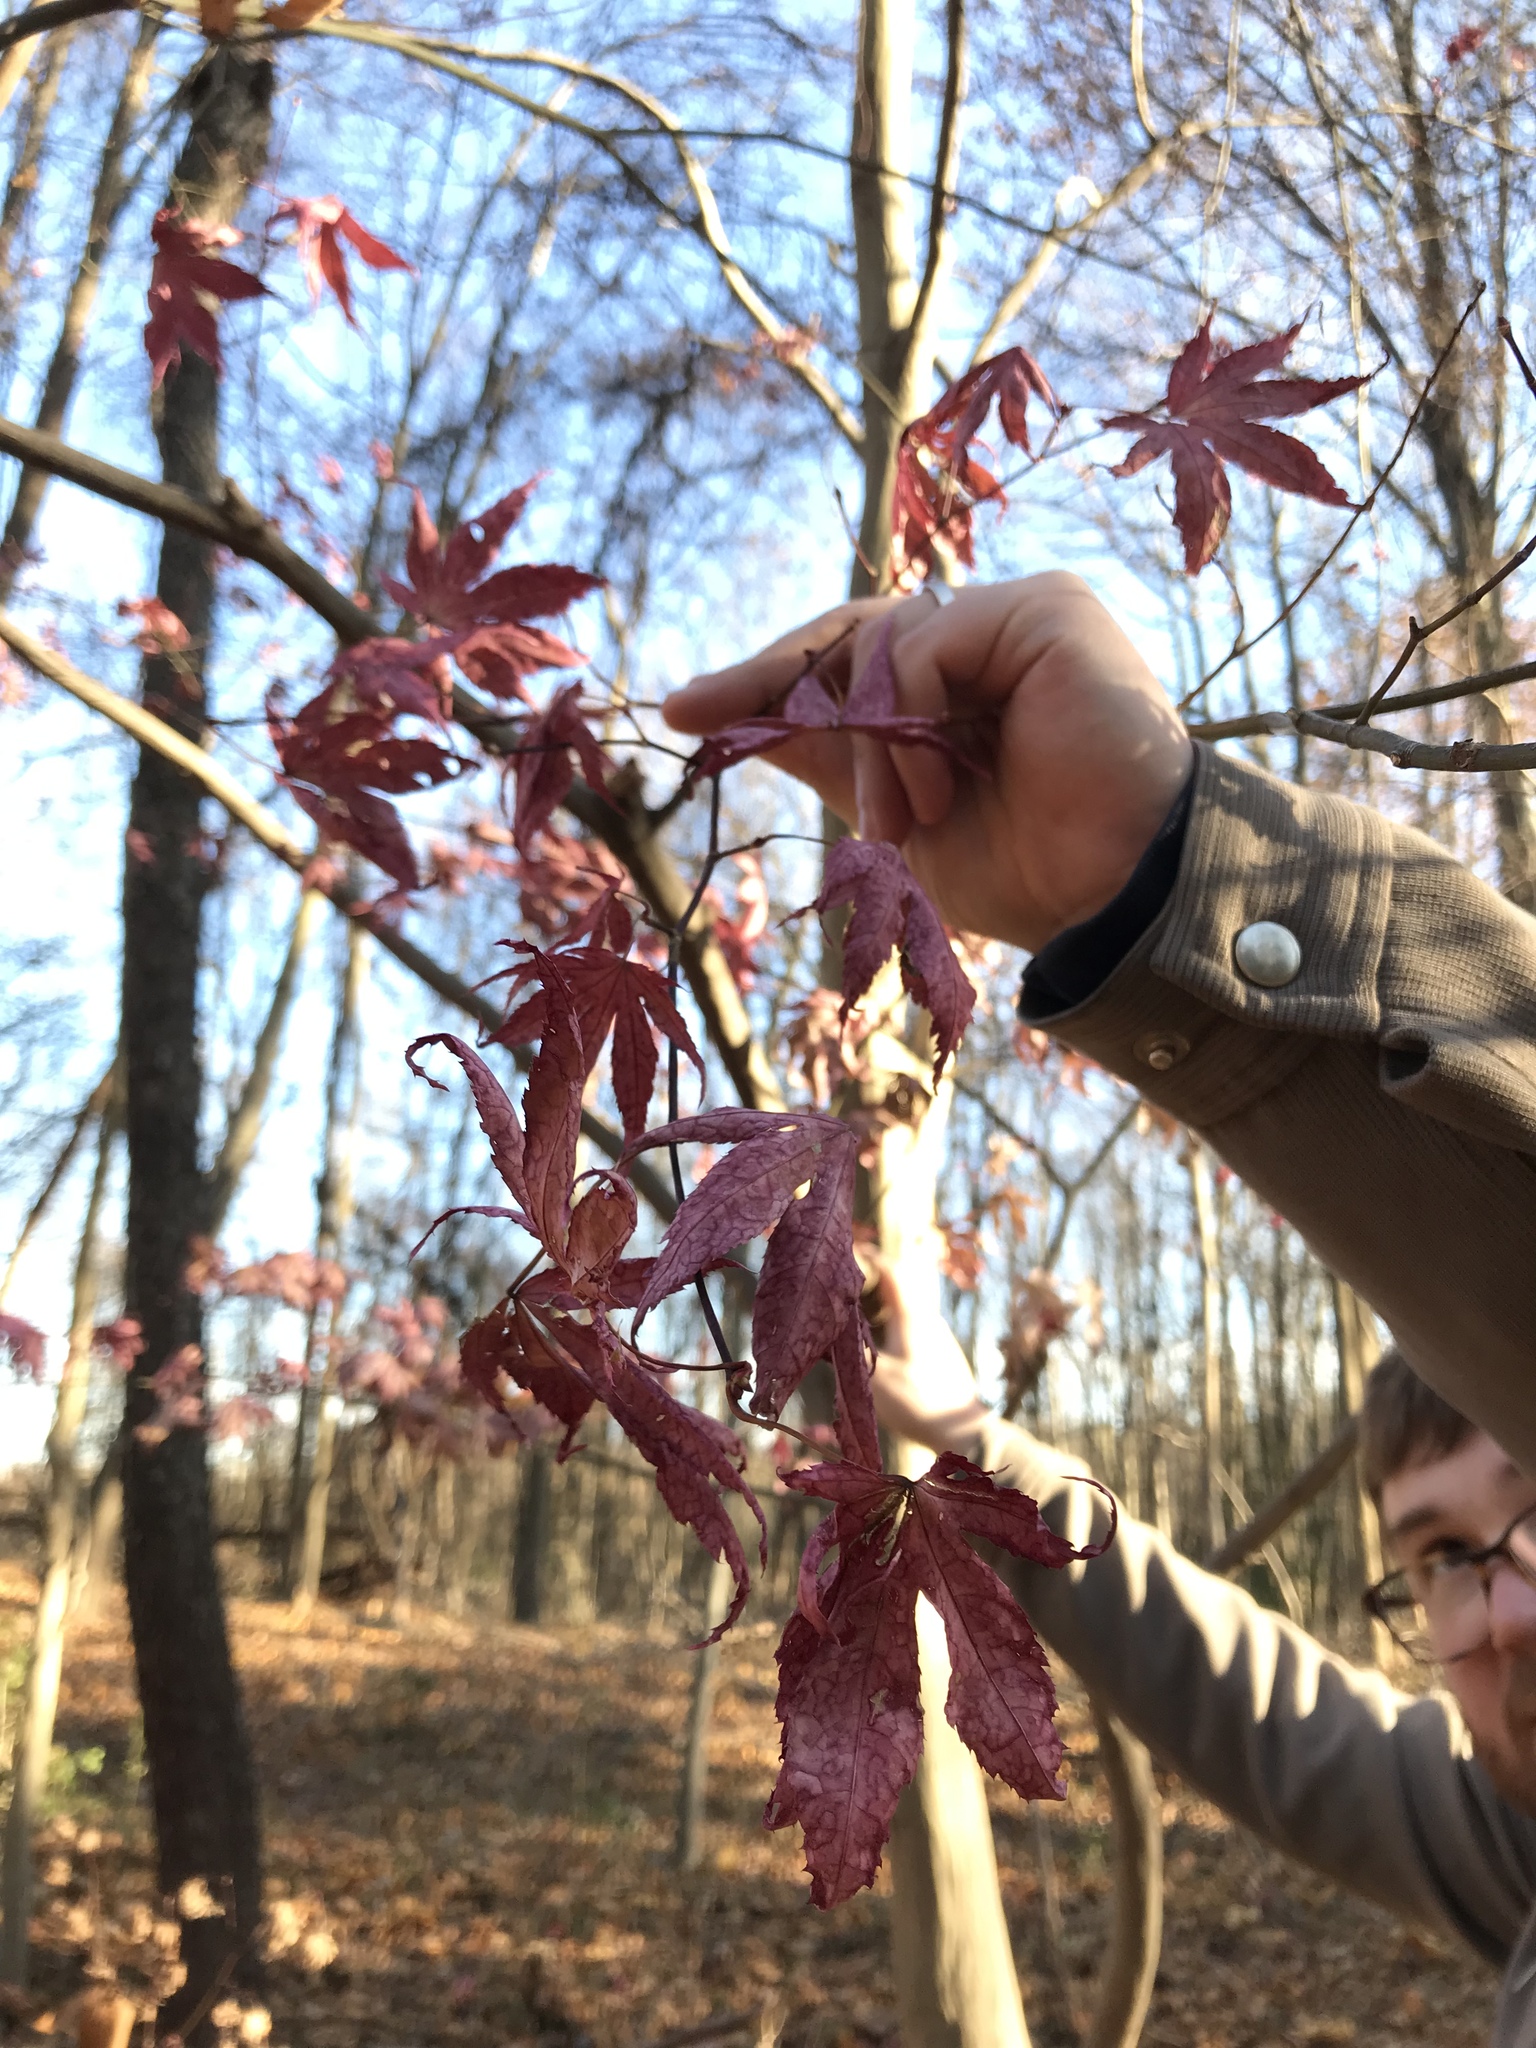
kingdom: Plantae
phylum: Tracheophyta
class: Magnoliopsida
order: Sapindales
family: Sapindaceae
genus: Acer
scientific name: Acer palmatum
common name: Japanese maple
